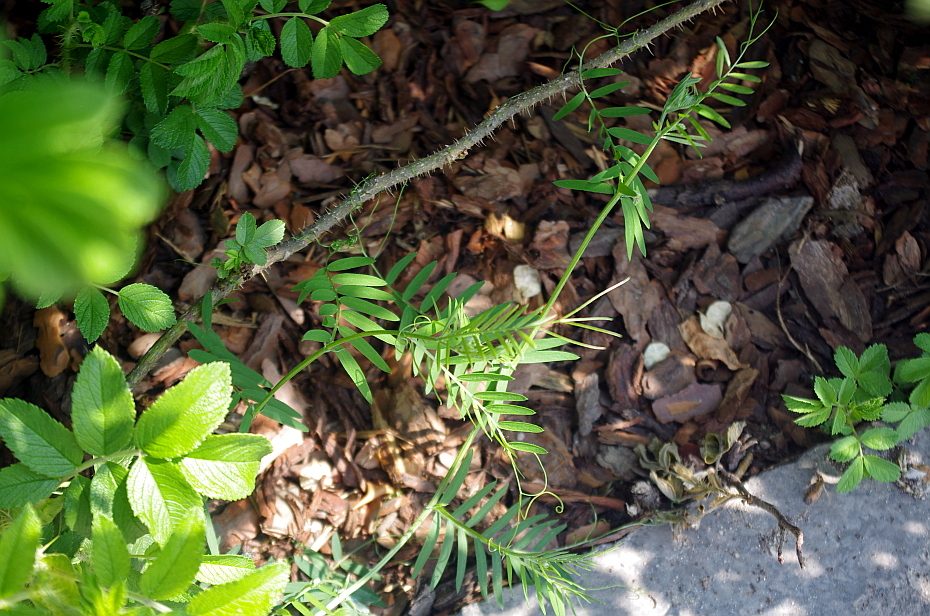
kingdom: Plantae
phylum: Tracheophyta
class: Magnoliopsida
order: Fabales
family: Fabaceae
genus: Vicia
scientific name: Vicia cracca
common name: Bird vetch
